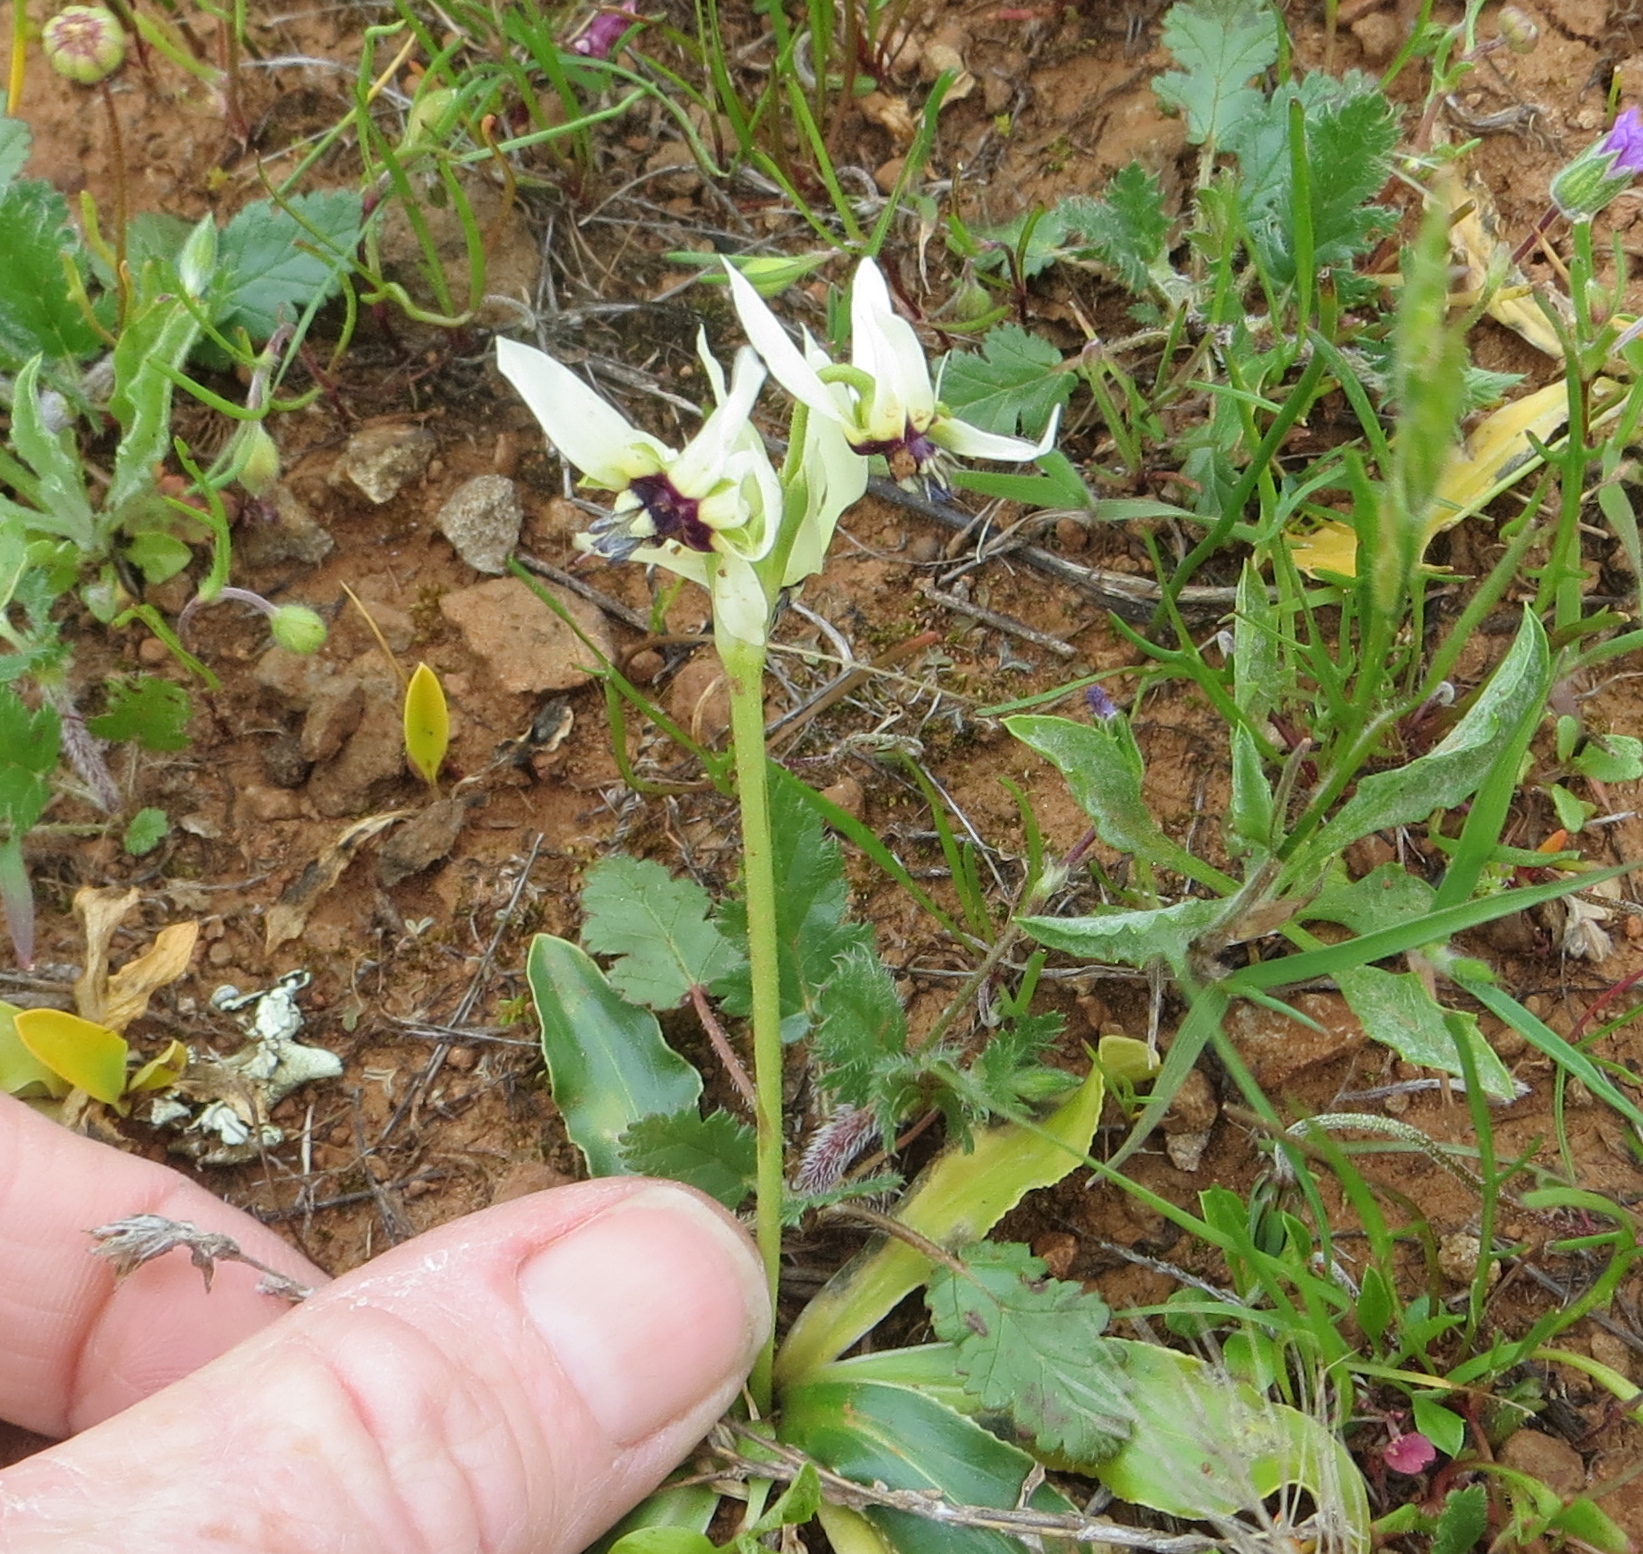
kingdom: Plantae
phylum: Tracheophyta
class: Magnoliopsida
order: Ericales
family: Primulaceae
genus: Dodecatheon
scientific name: Dodecatheon clevelandii
